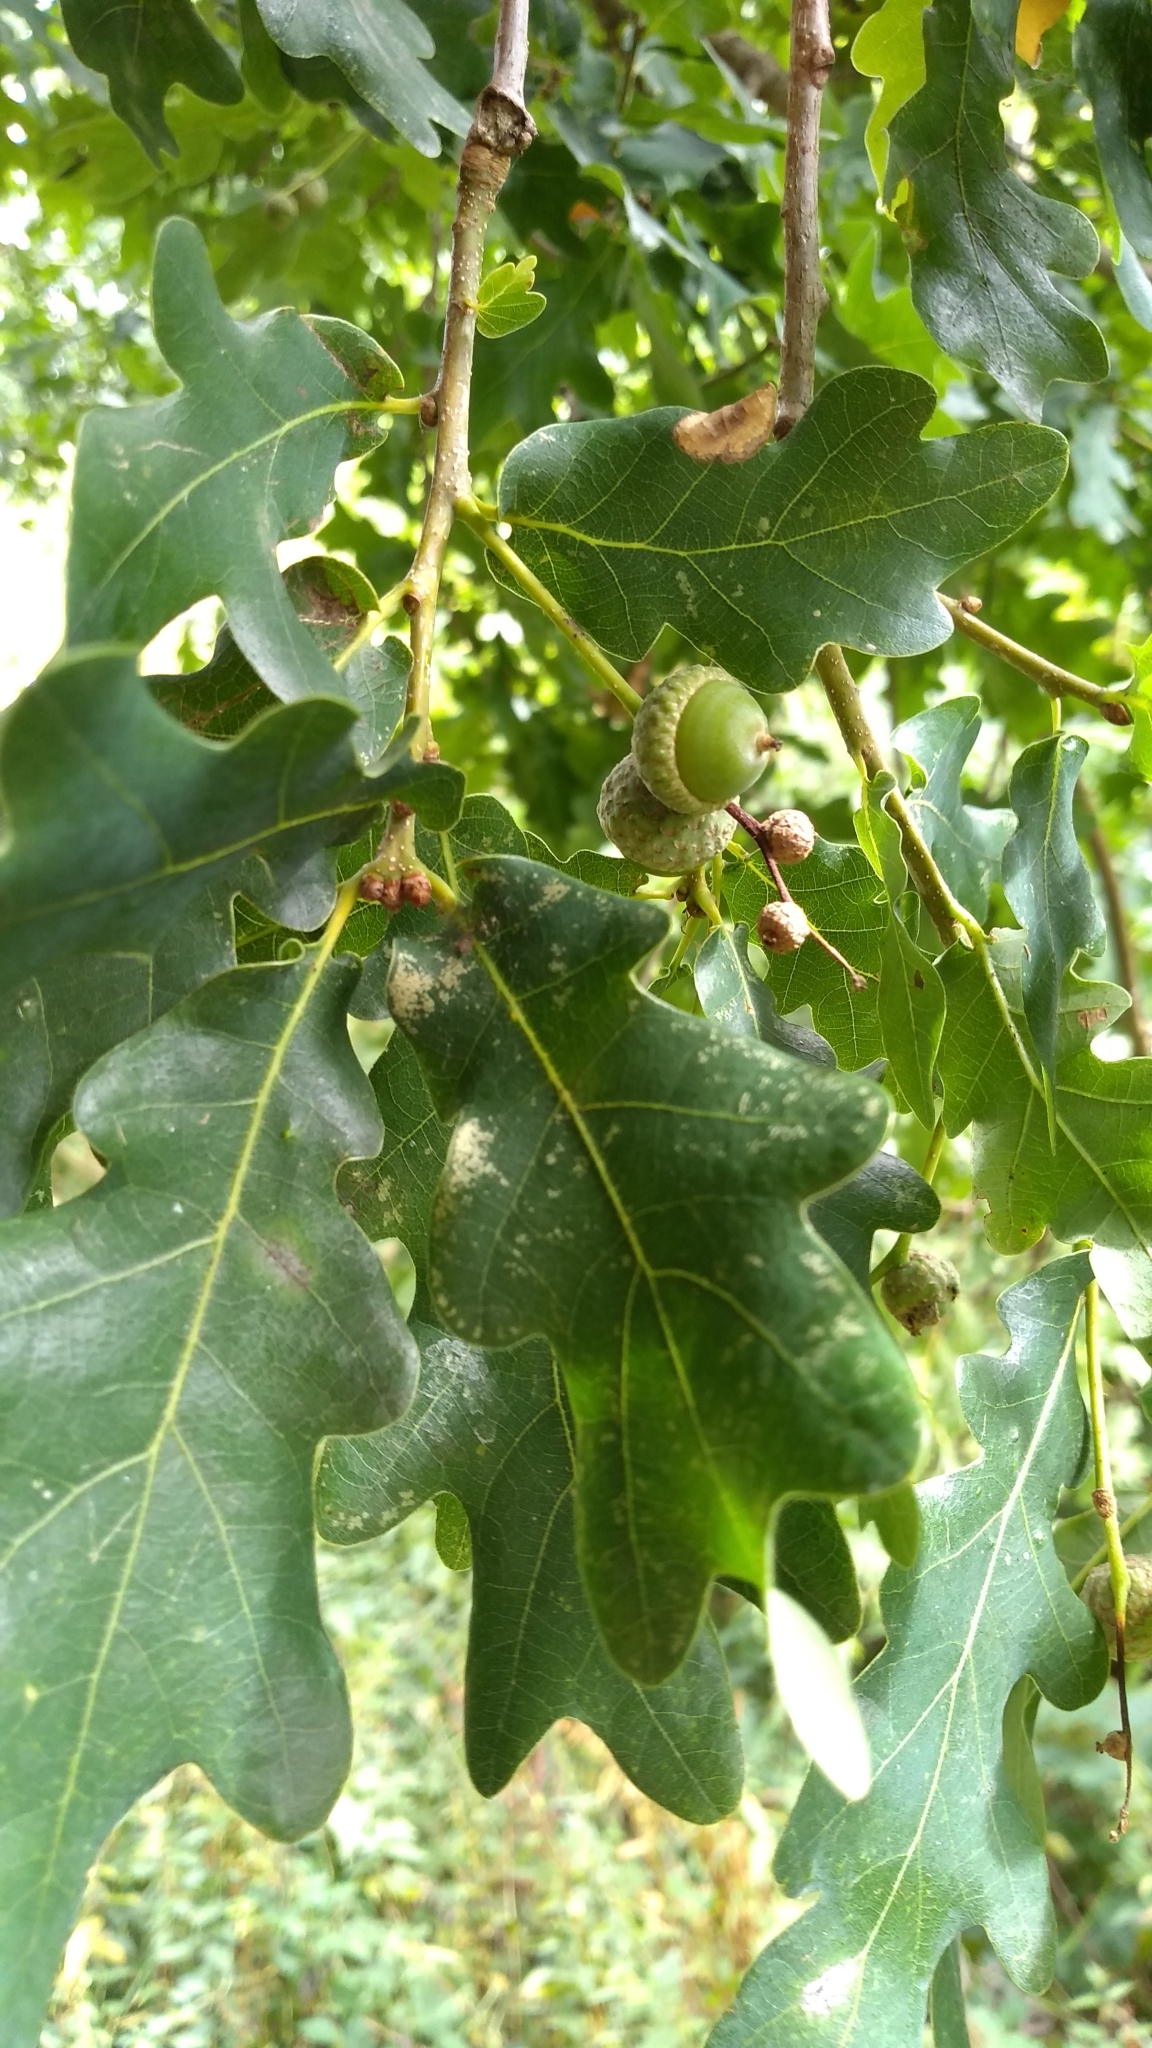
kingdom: Plantae
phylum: Tracheophyta
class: Magnoliopsida
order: Fagales
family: Fagaceae
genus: Quercus
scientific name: Quercus robur
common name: Pedunculate oak
